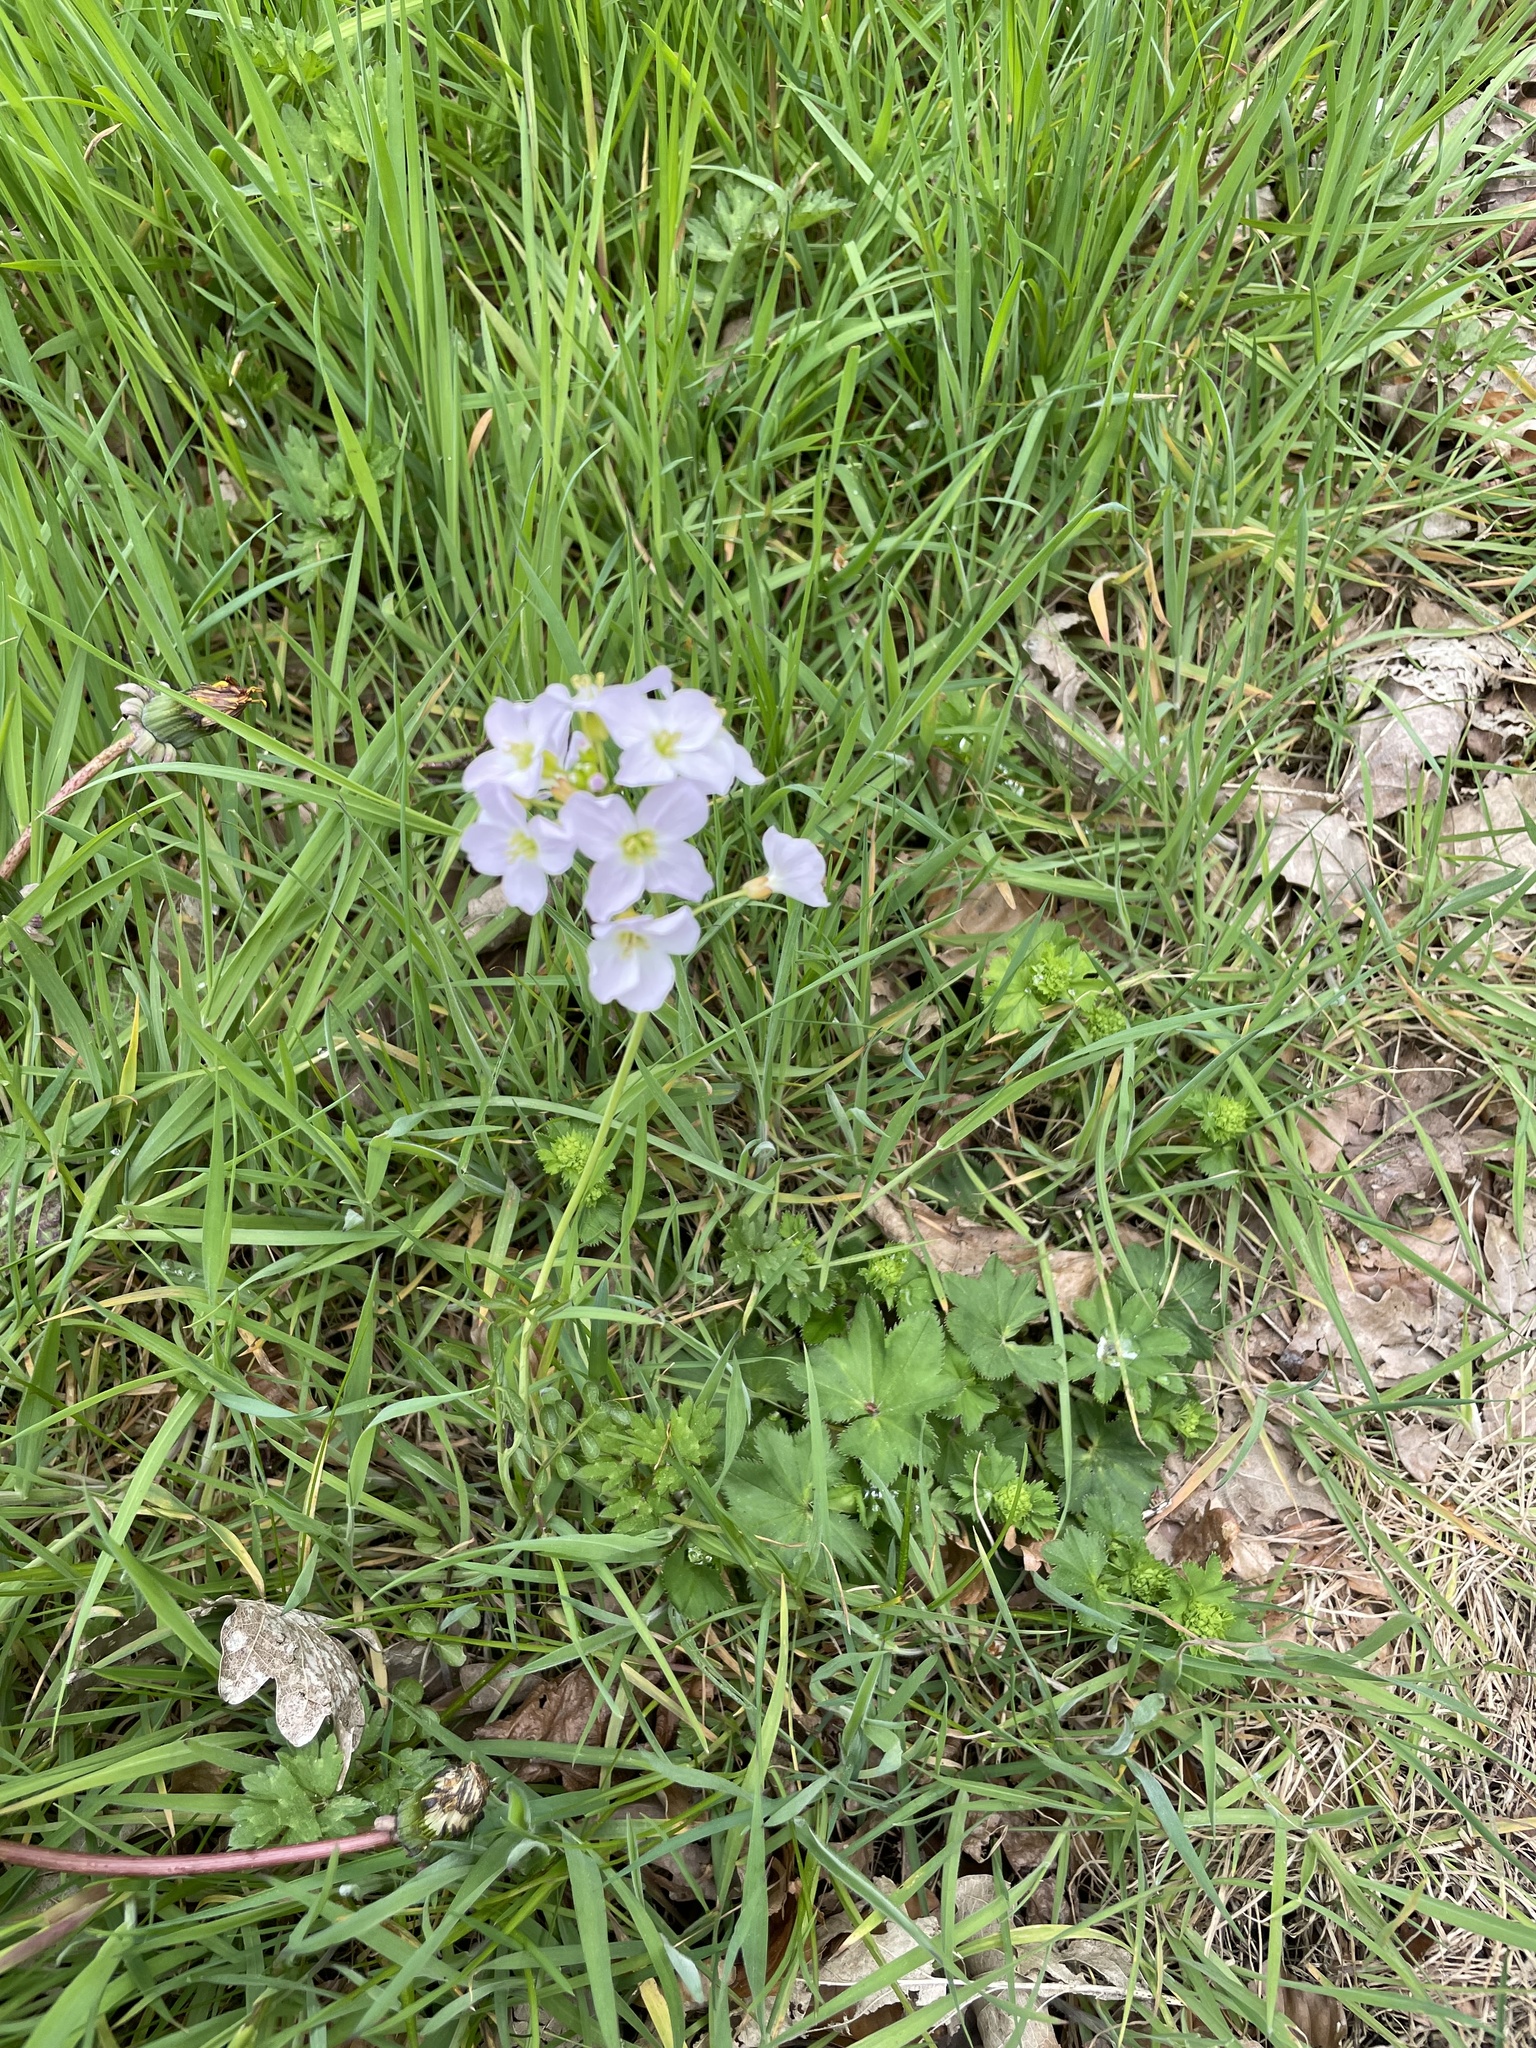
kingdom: Plantae
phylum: Tracheophyta
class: Magnoliopsida
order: Brassicales
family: Brassicaceae
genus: Cardamine
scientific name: Cardamine pratensis
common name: Cuckoo flower
